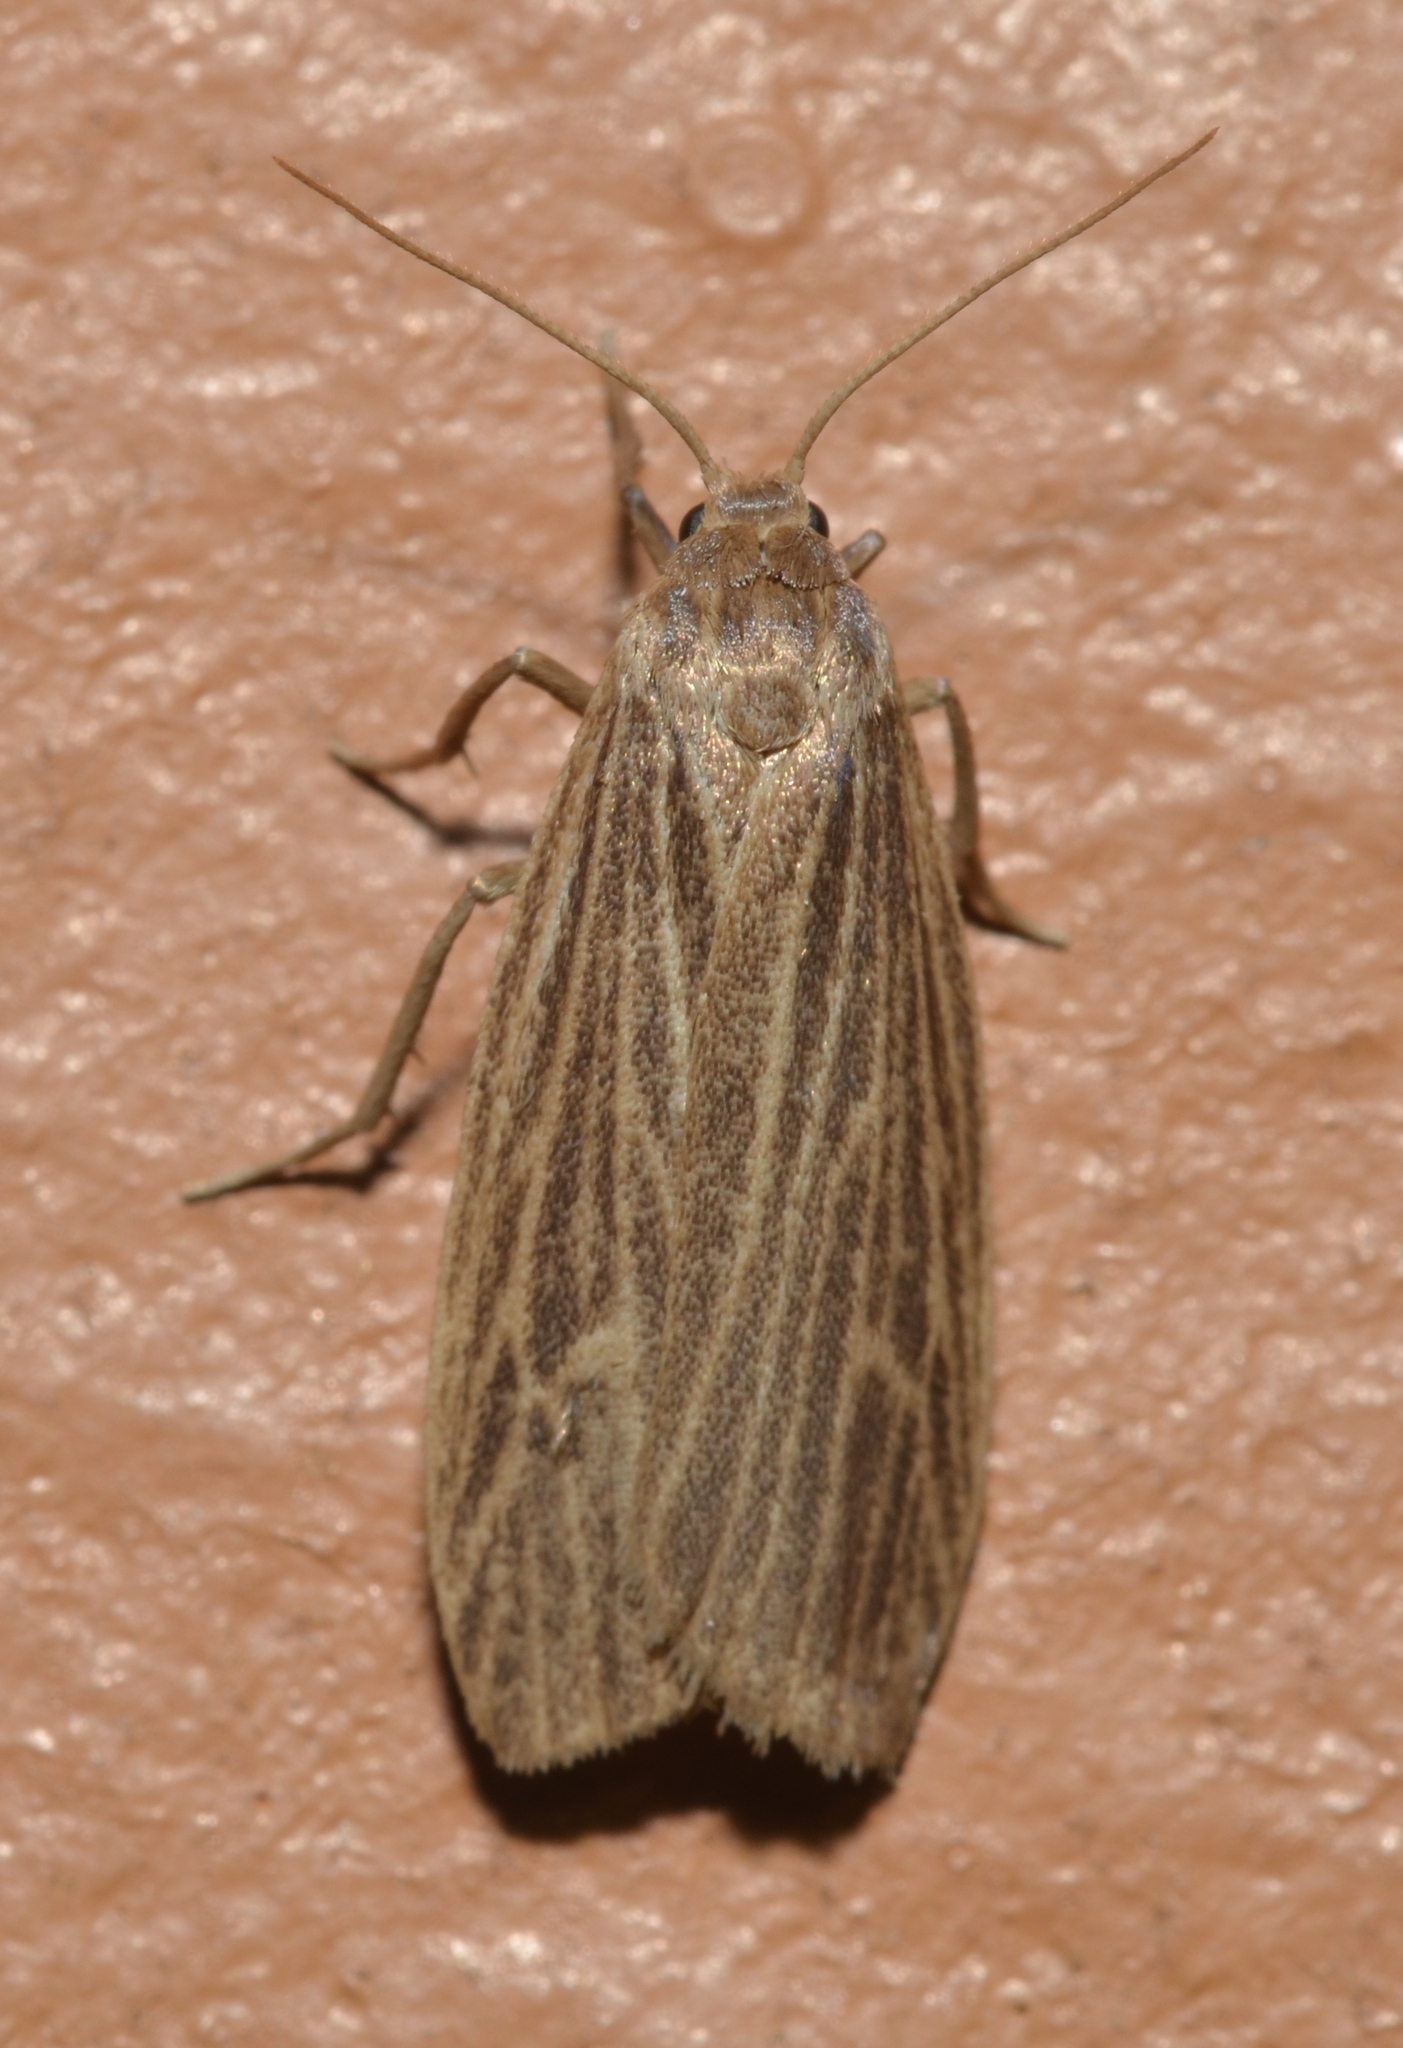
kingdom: Animalia
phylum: Arthropoda
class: Insecta
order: Lepidoptera
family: Erebidae
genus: Crambidia
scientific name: Crambidia pallida
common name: Pale lichen moth
